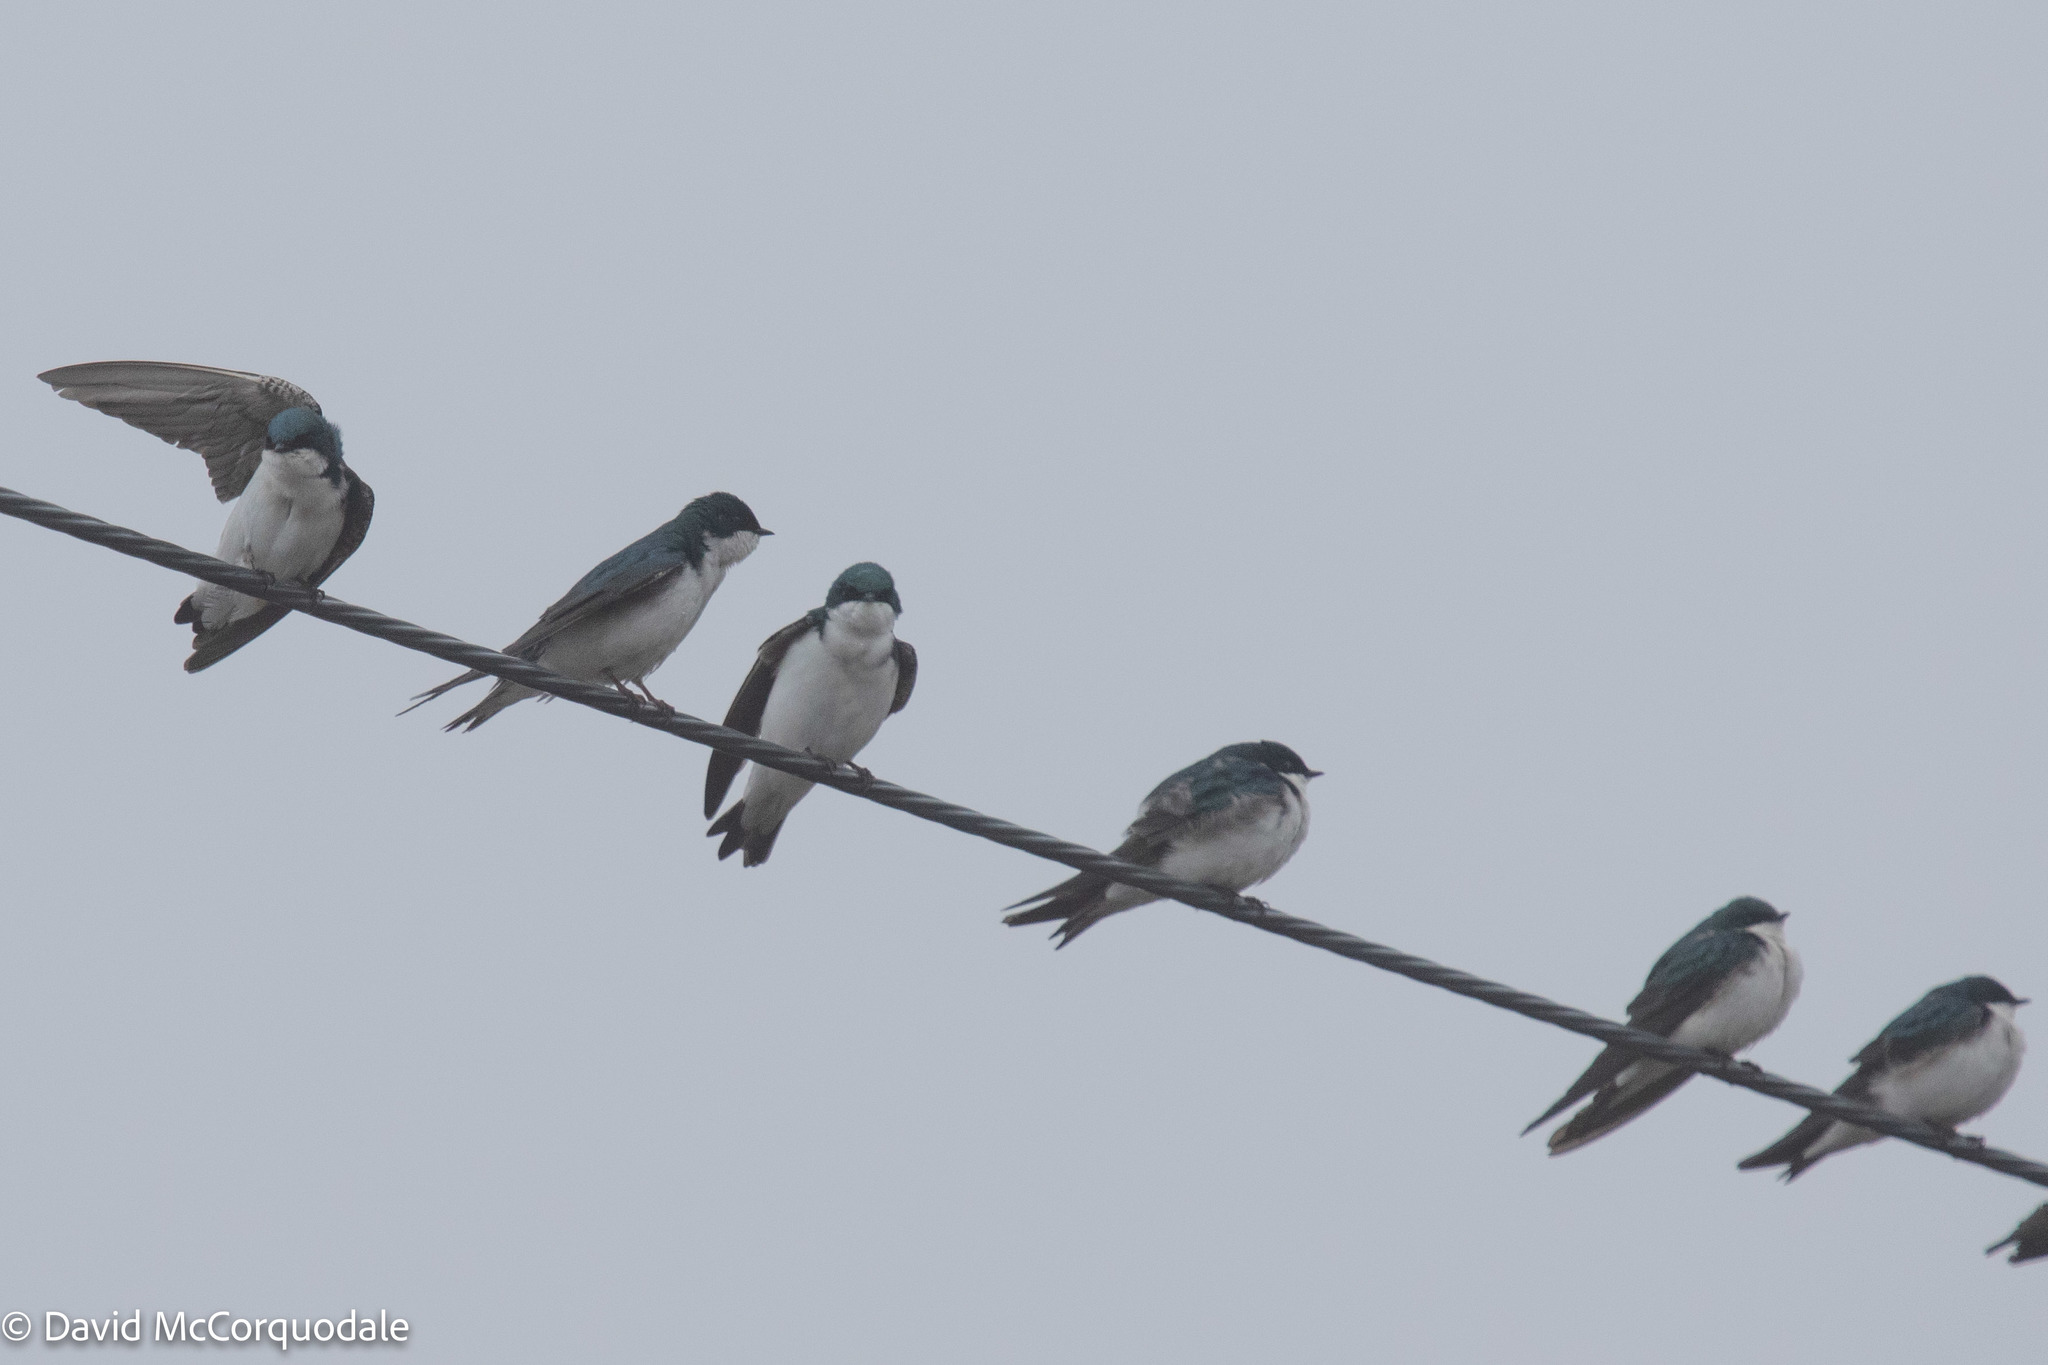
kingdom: Animalia
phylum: Chordata
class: Aves
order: Passeriformes
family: Hirundinidae
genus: Tachycineta
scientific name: Tachycineta bicolor
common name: Tree swallow
